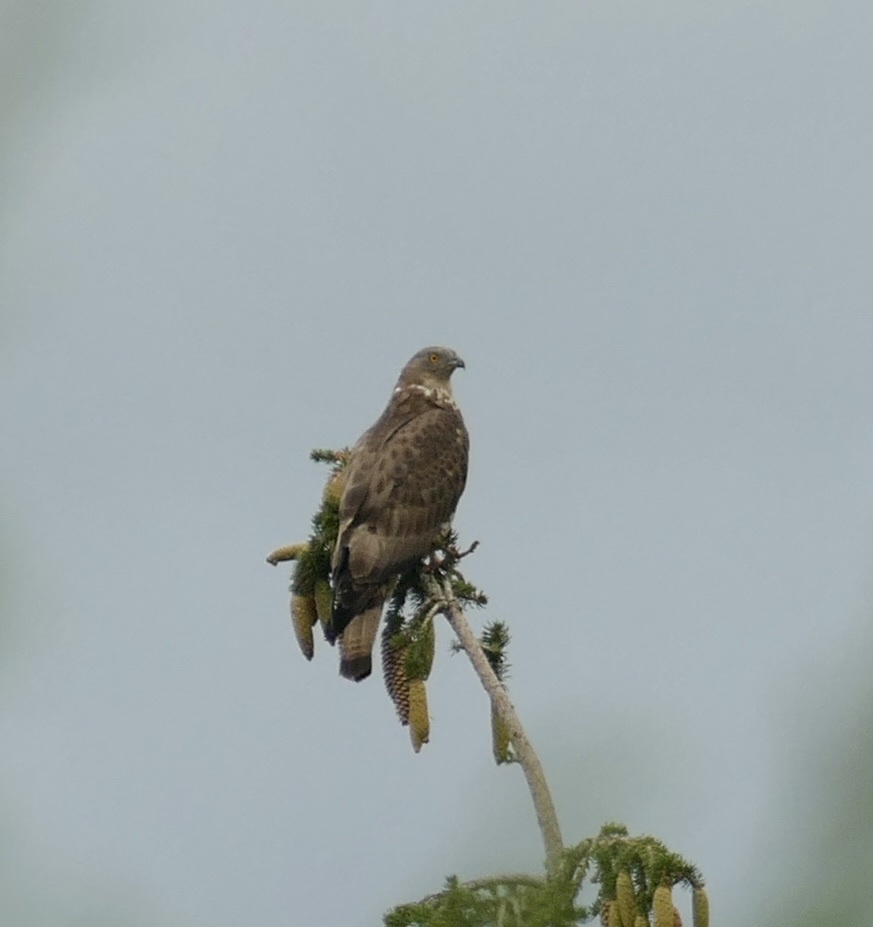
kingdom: Animalia
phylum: Chordata
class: Aves
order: Accipitriformes
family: Accipitridae
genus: Pernis
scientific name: Pernis apivorus
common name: European honey buzzard
